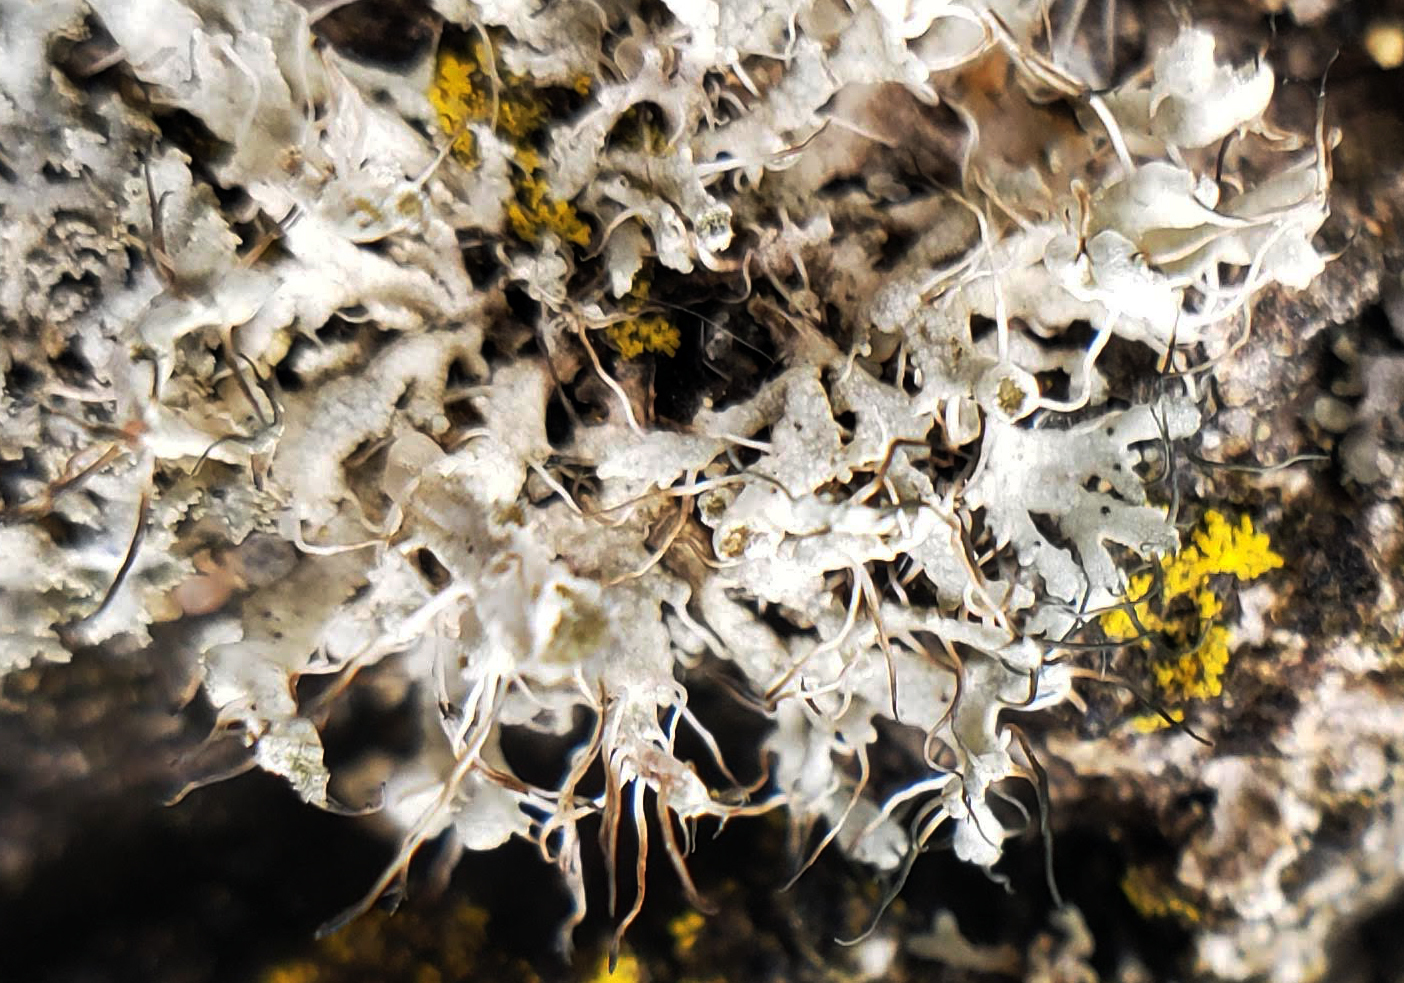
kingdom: Fungi
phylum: Ascomycota
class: Lecanoromycetes
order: Caliciales
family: Physciaceae
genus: Physcia
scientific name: Physcia adscendens
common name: Hooded rosette lichen
